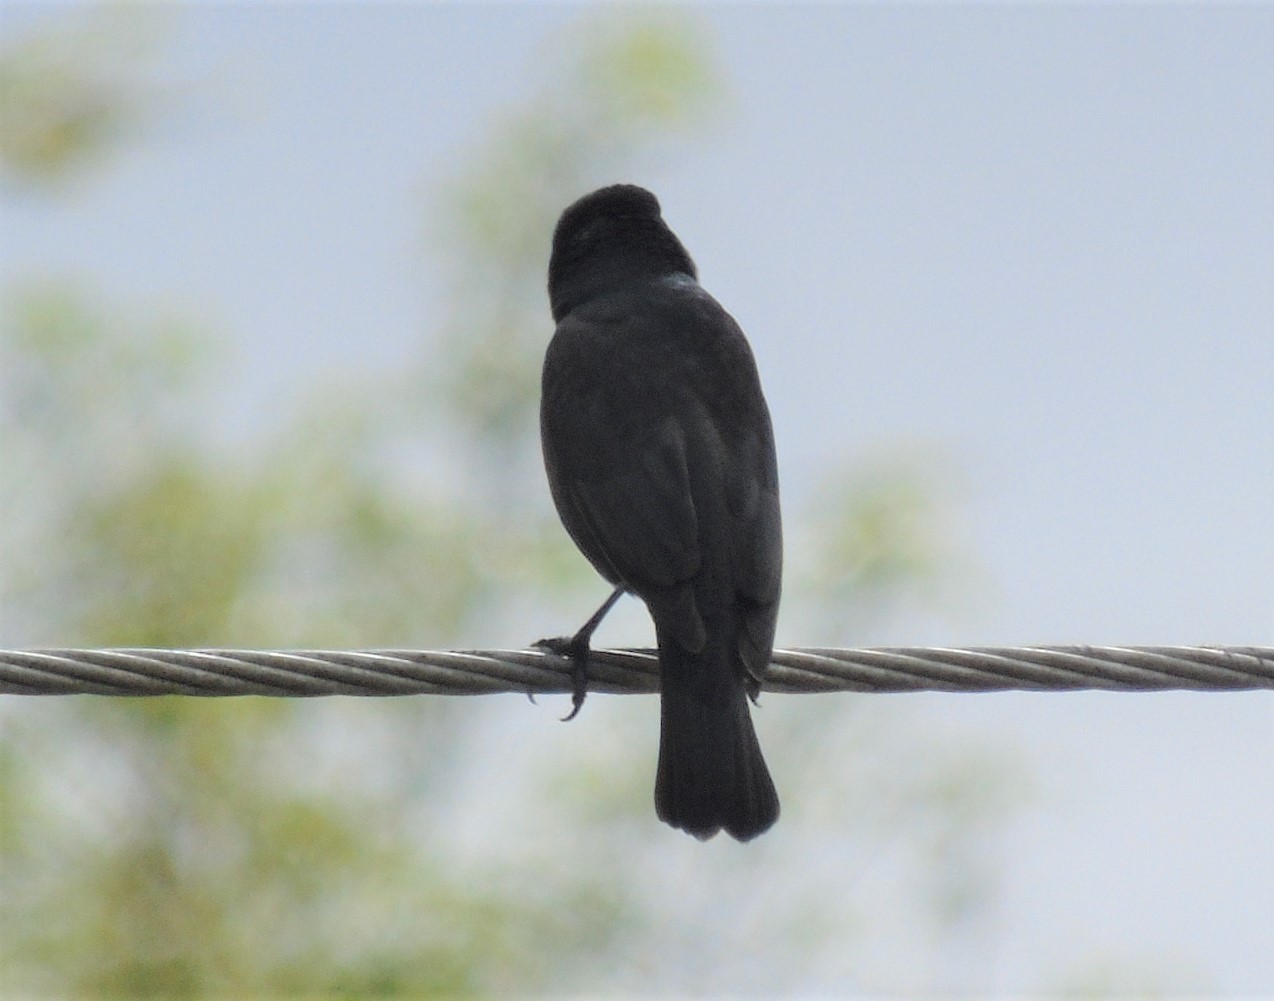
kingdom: Animalia
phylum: Chordata
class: Aves
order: Passeriformes
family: Icteridae
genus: Molothrus
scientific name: Molothrus bonariensis
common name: Shiny cowbird
